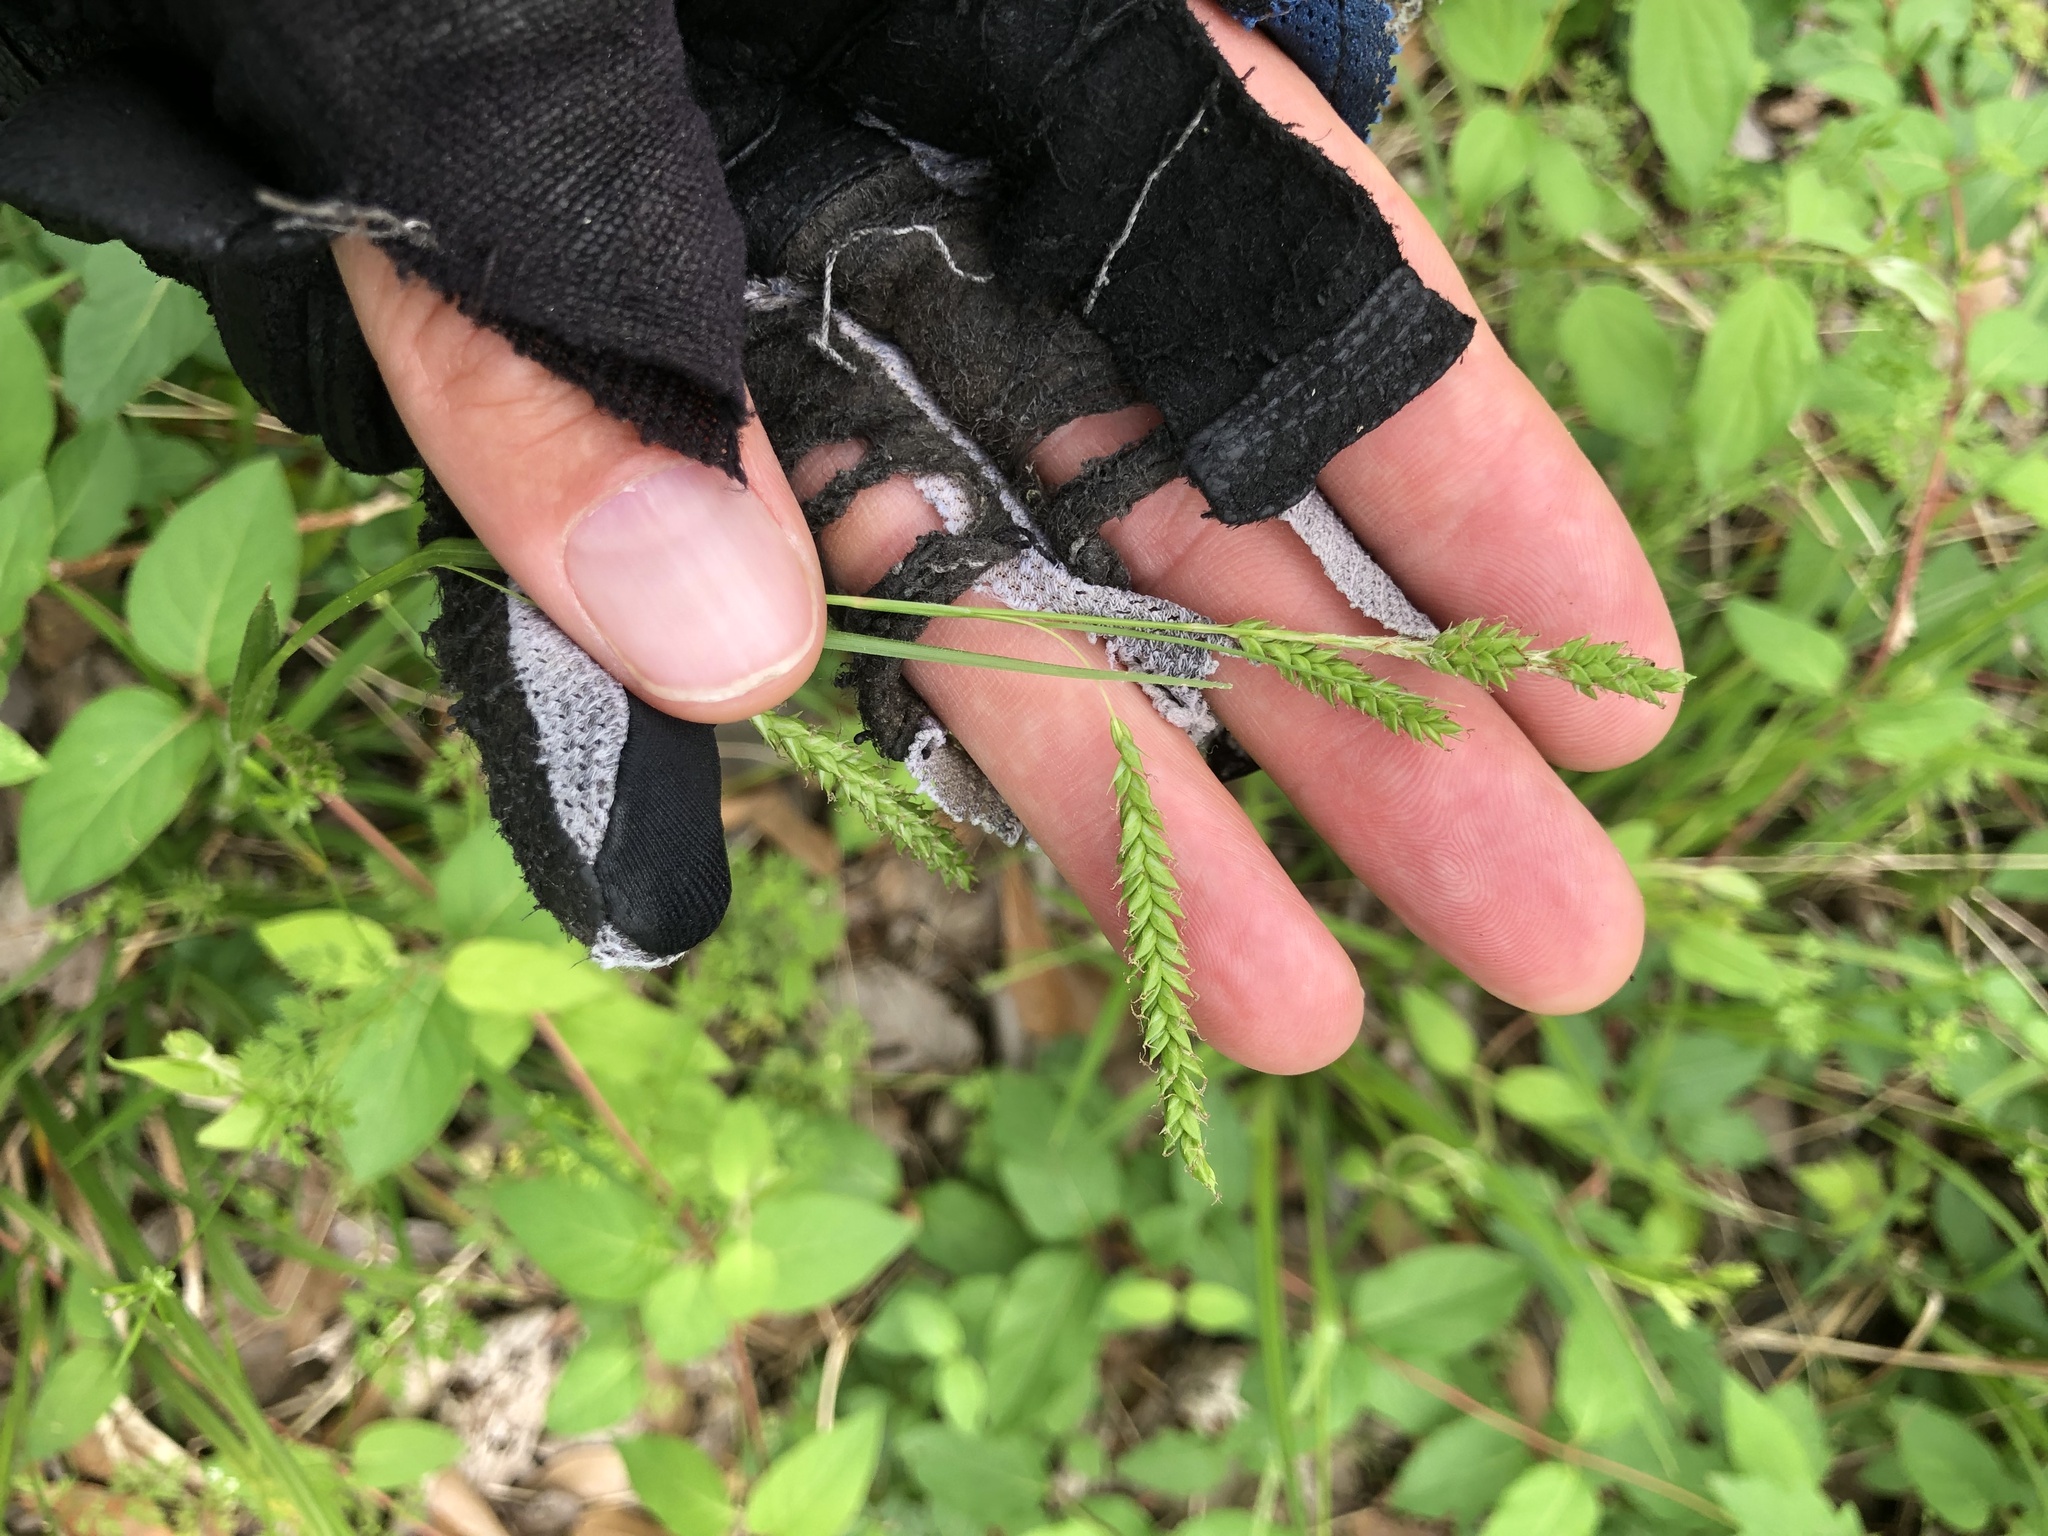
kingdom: Plantae
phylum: Tracheophyta
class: Liliopsida
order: Poales
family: Cyperaceae
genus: Carex
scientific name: Carex oxylepis
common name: Sharpscale sedge
